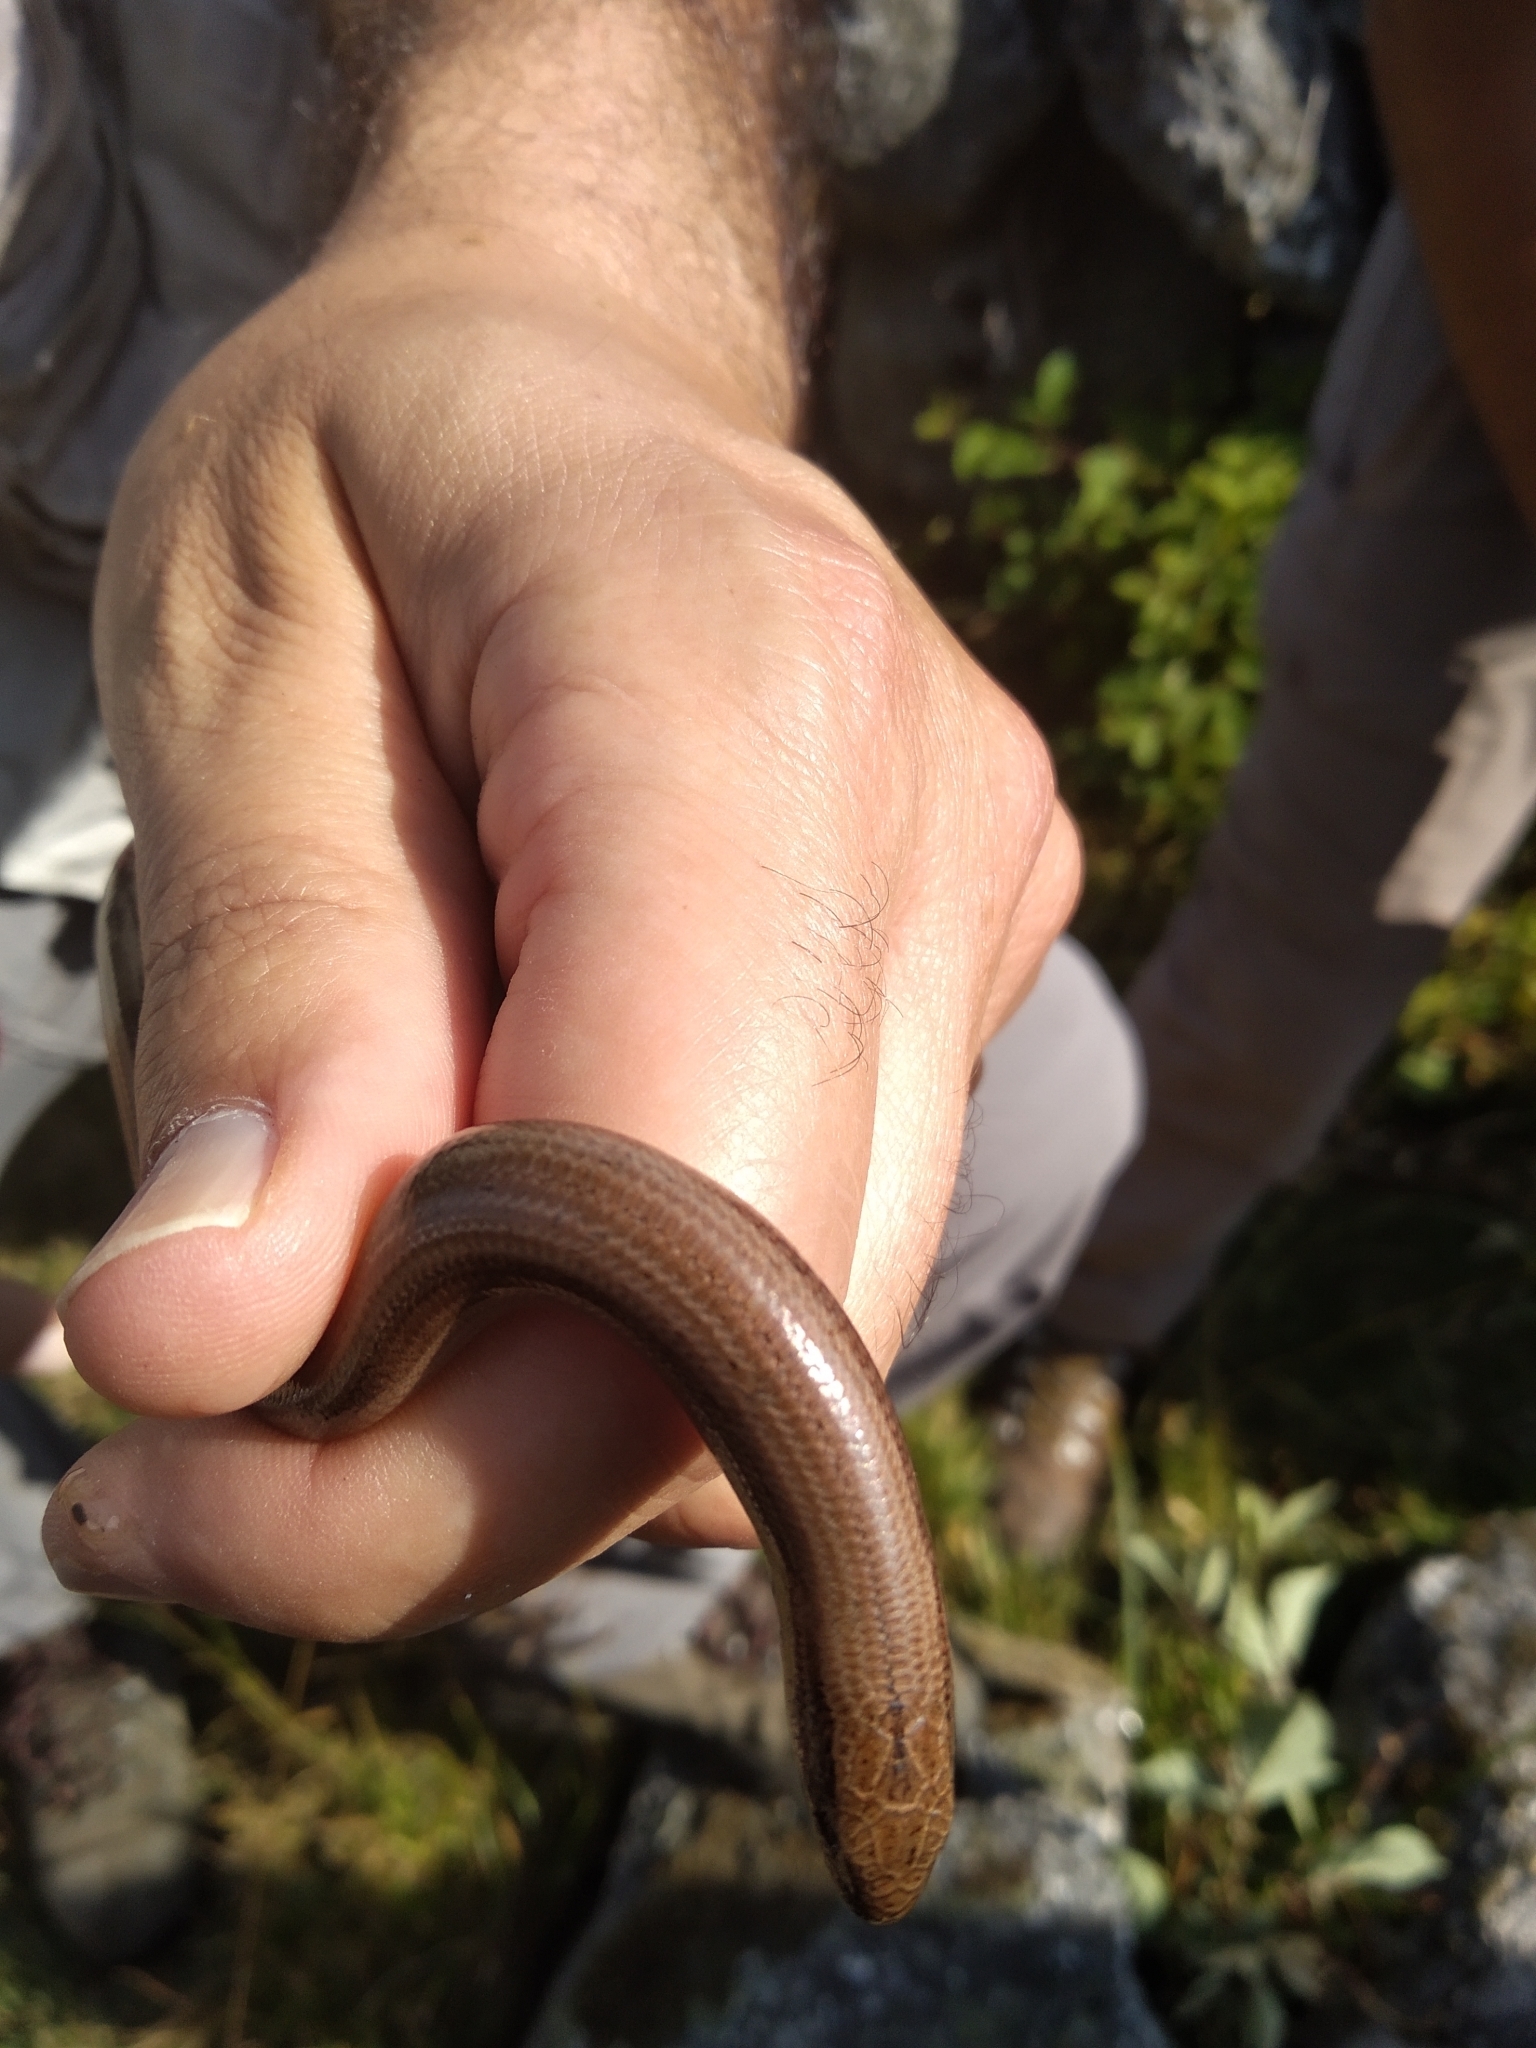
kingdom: Animalia
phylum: Chordata
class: Squamata
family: Anguidae
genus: Anguis
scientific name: Anguis fragilis
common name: Slow worm
